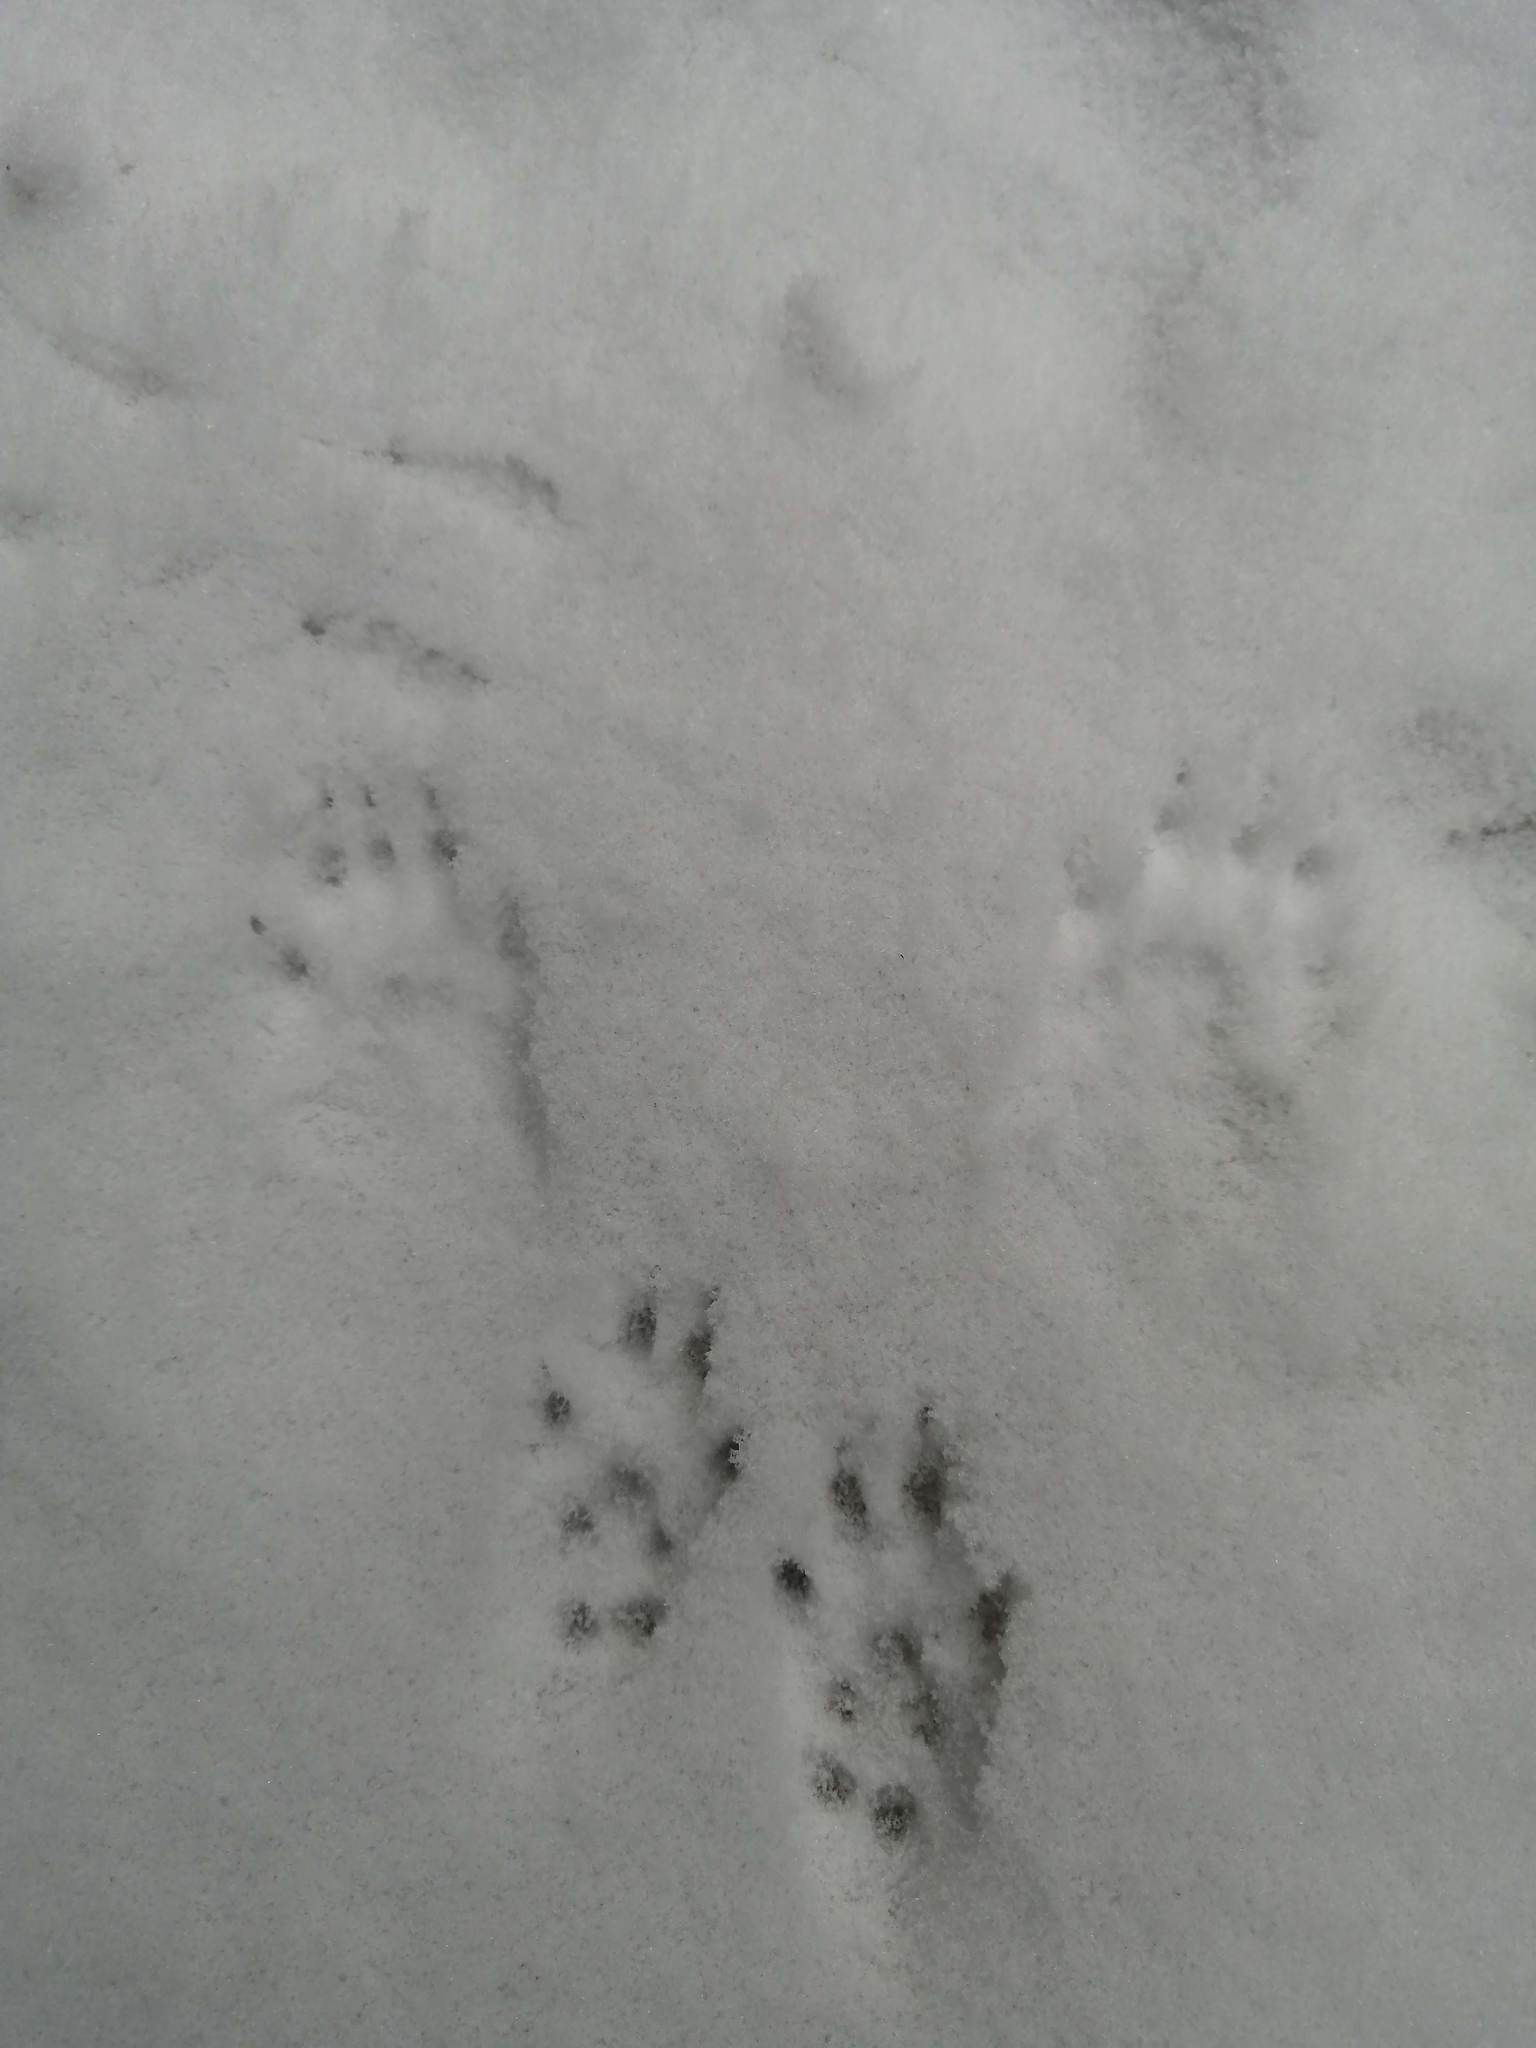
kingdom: Animalia
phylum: Chordata
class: Mammalia
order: Rodentia
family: Sciuridae
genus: Sciurus
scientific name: Sciurus vulgaris
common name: Eurasian red squirrel
